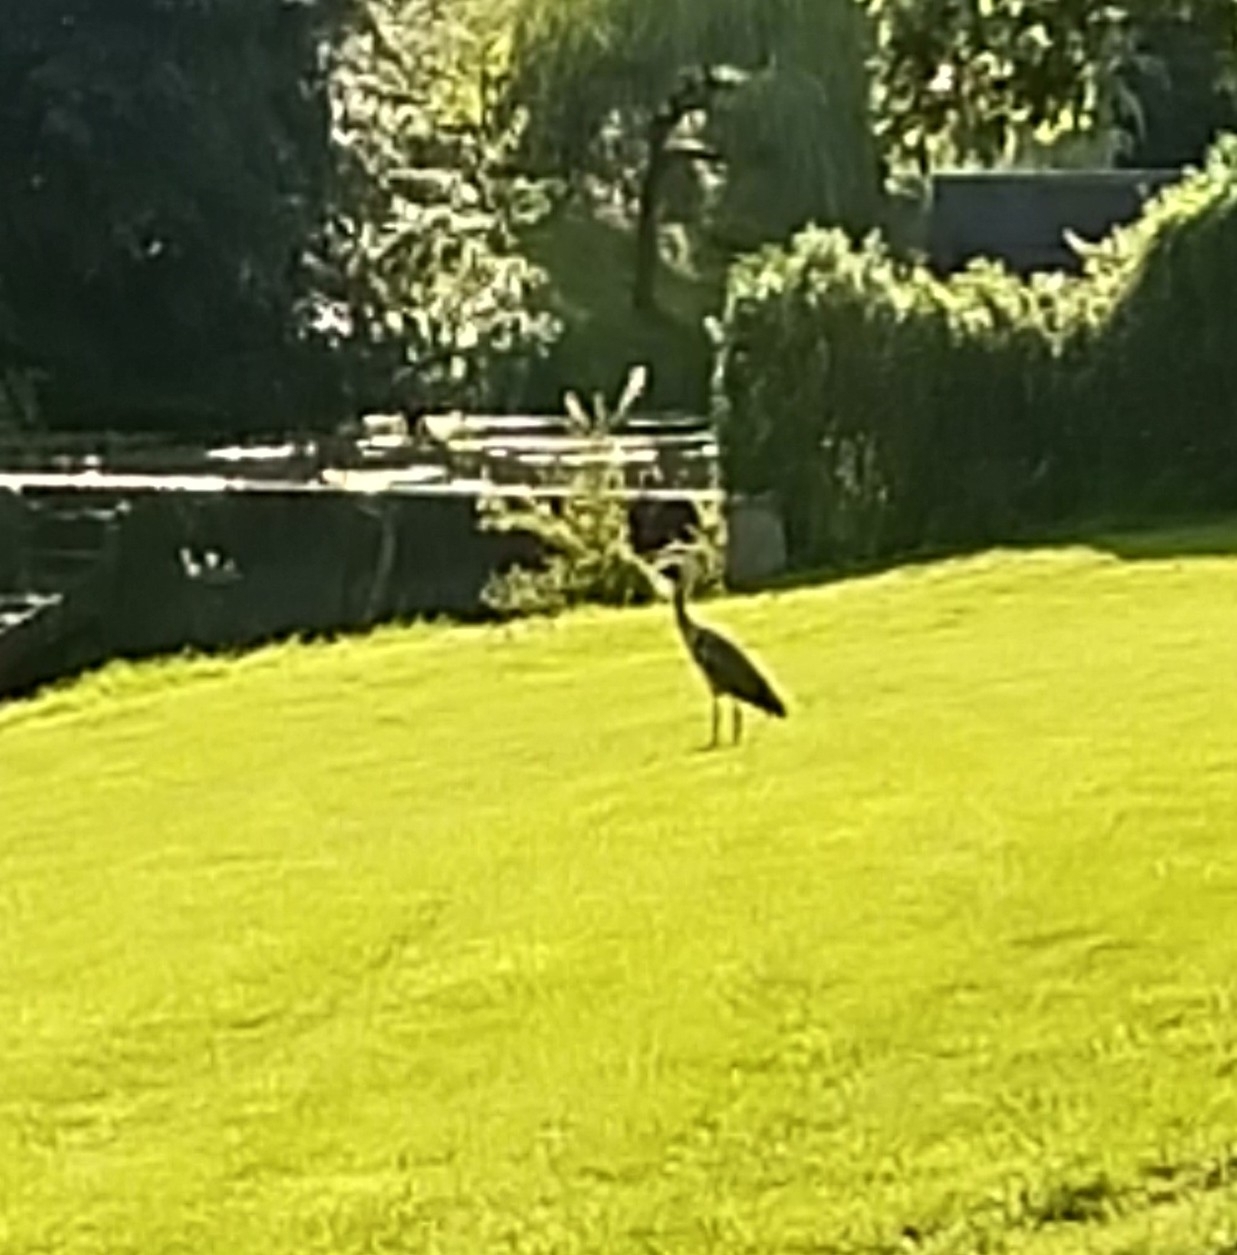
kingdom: Animalia
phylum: Chordata
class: Aves
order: Pelecaniformes
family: Ardeidae
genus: Ardea
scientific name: Ardea cinerea
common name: Grey heron
